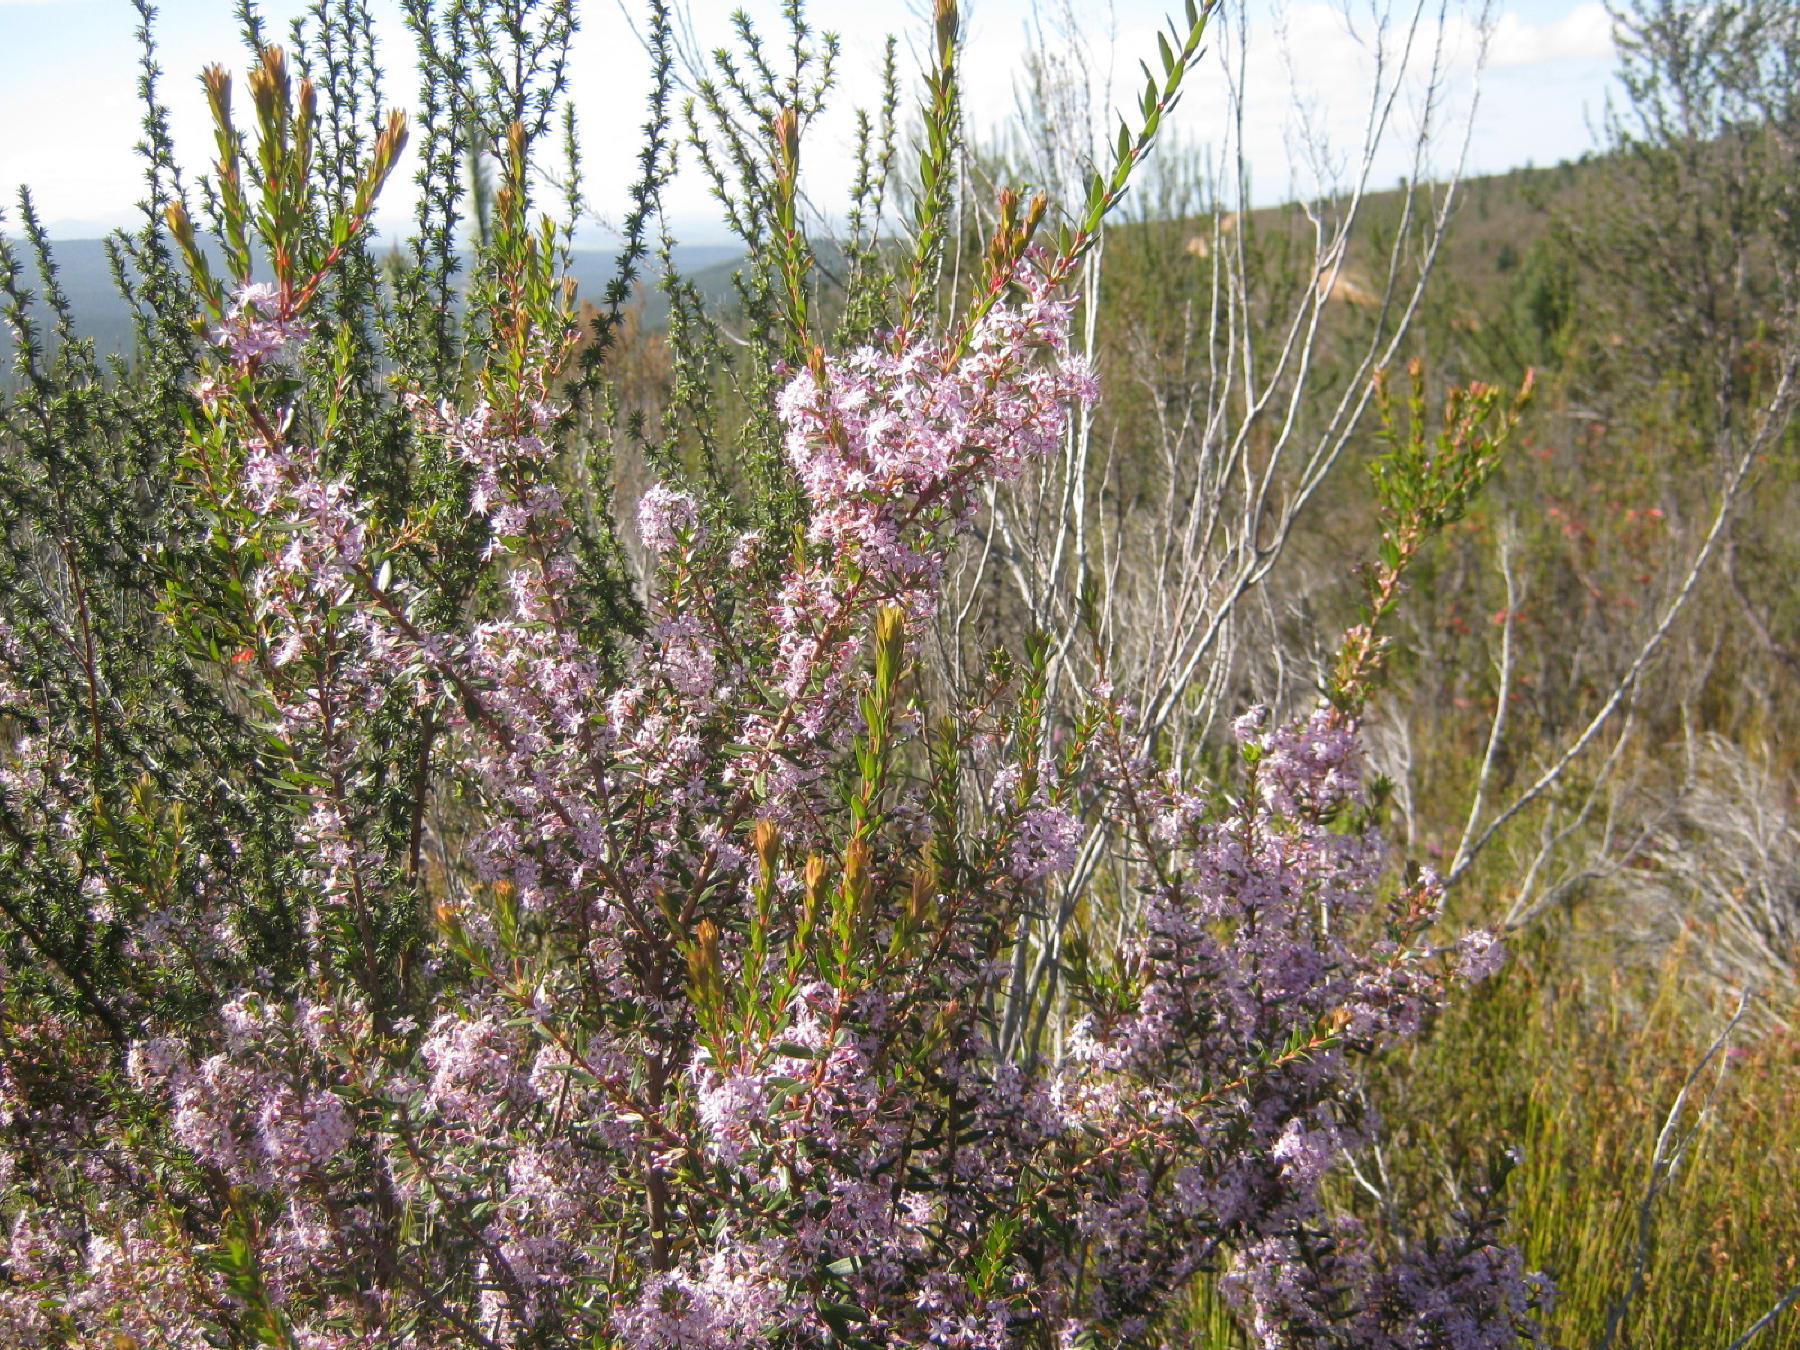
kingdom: Plantae
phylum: Tracheophyta
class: Magnoliopsida
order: Sapindales
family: Rutaceae
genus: Agathosma
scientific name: Agathosma ovata
